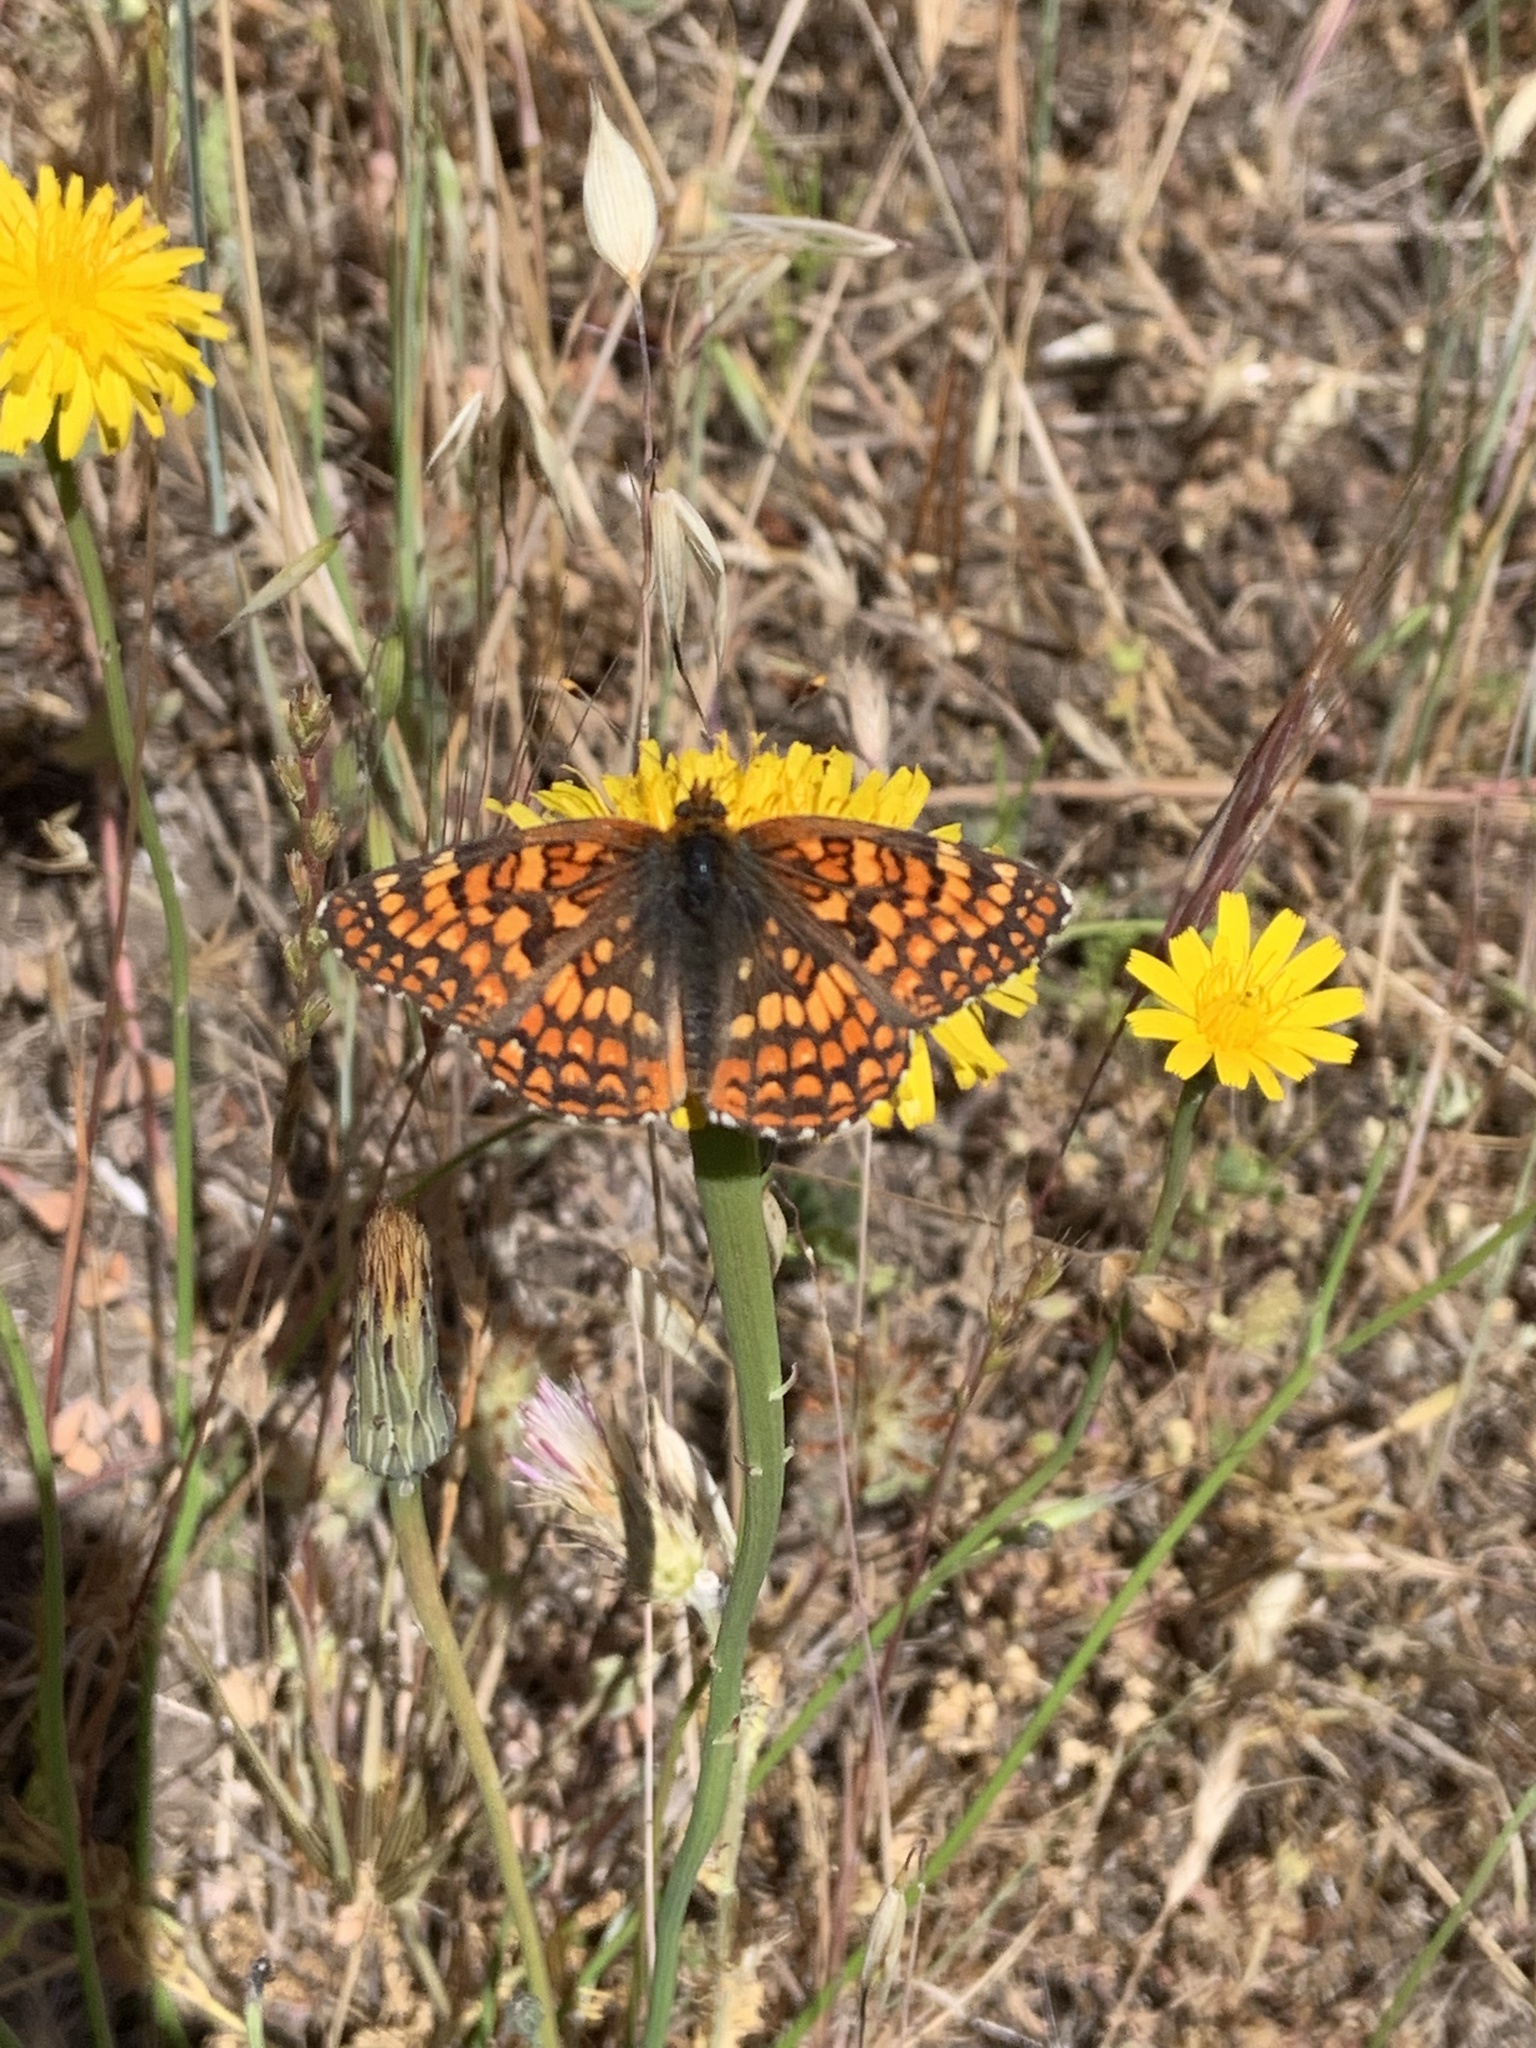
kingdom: Animalia
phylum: Arthropoda
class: Insecta
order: Lepidoptera
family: Nymphalidae
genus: Chlosyne
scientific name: Chlosyne palla
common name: Northern checkerspot
